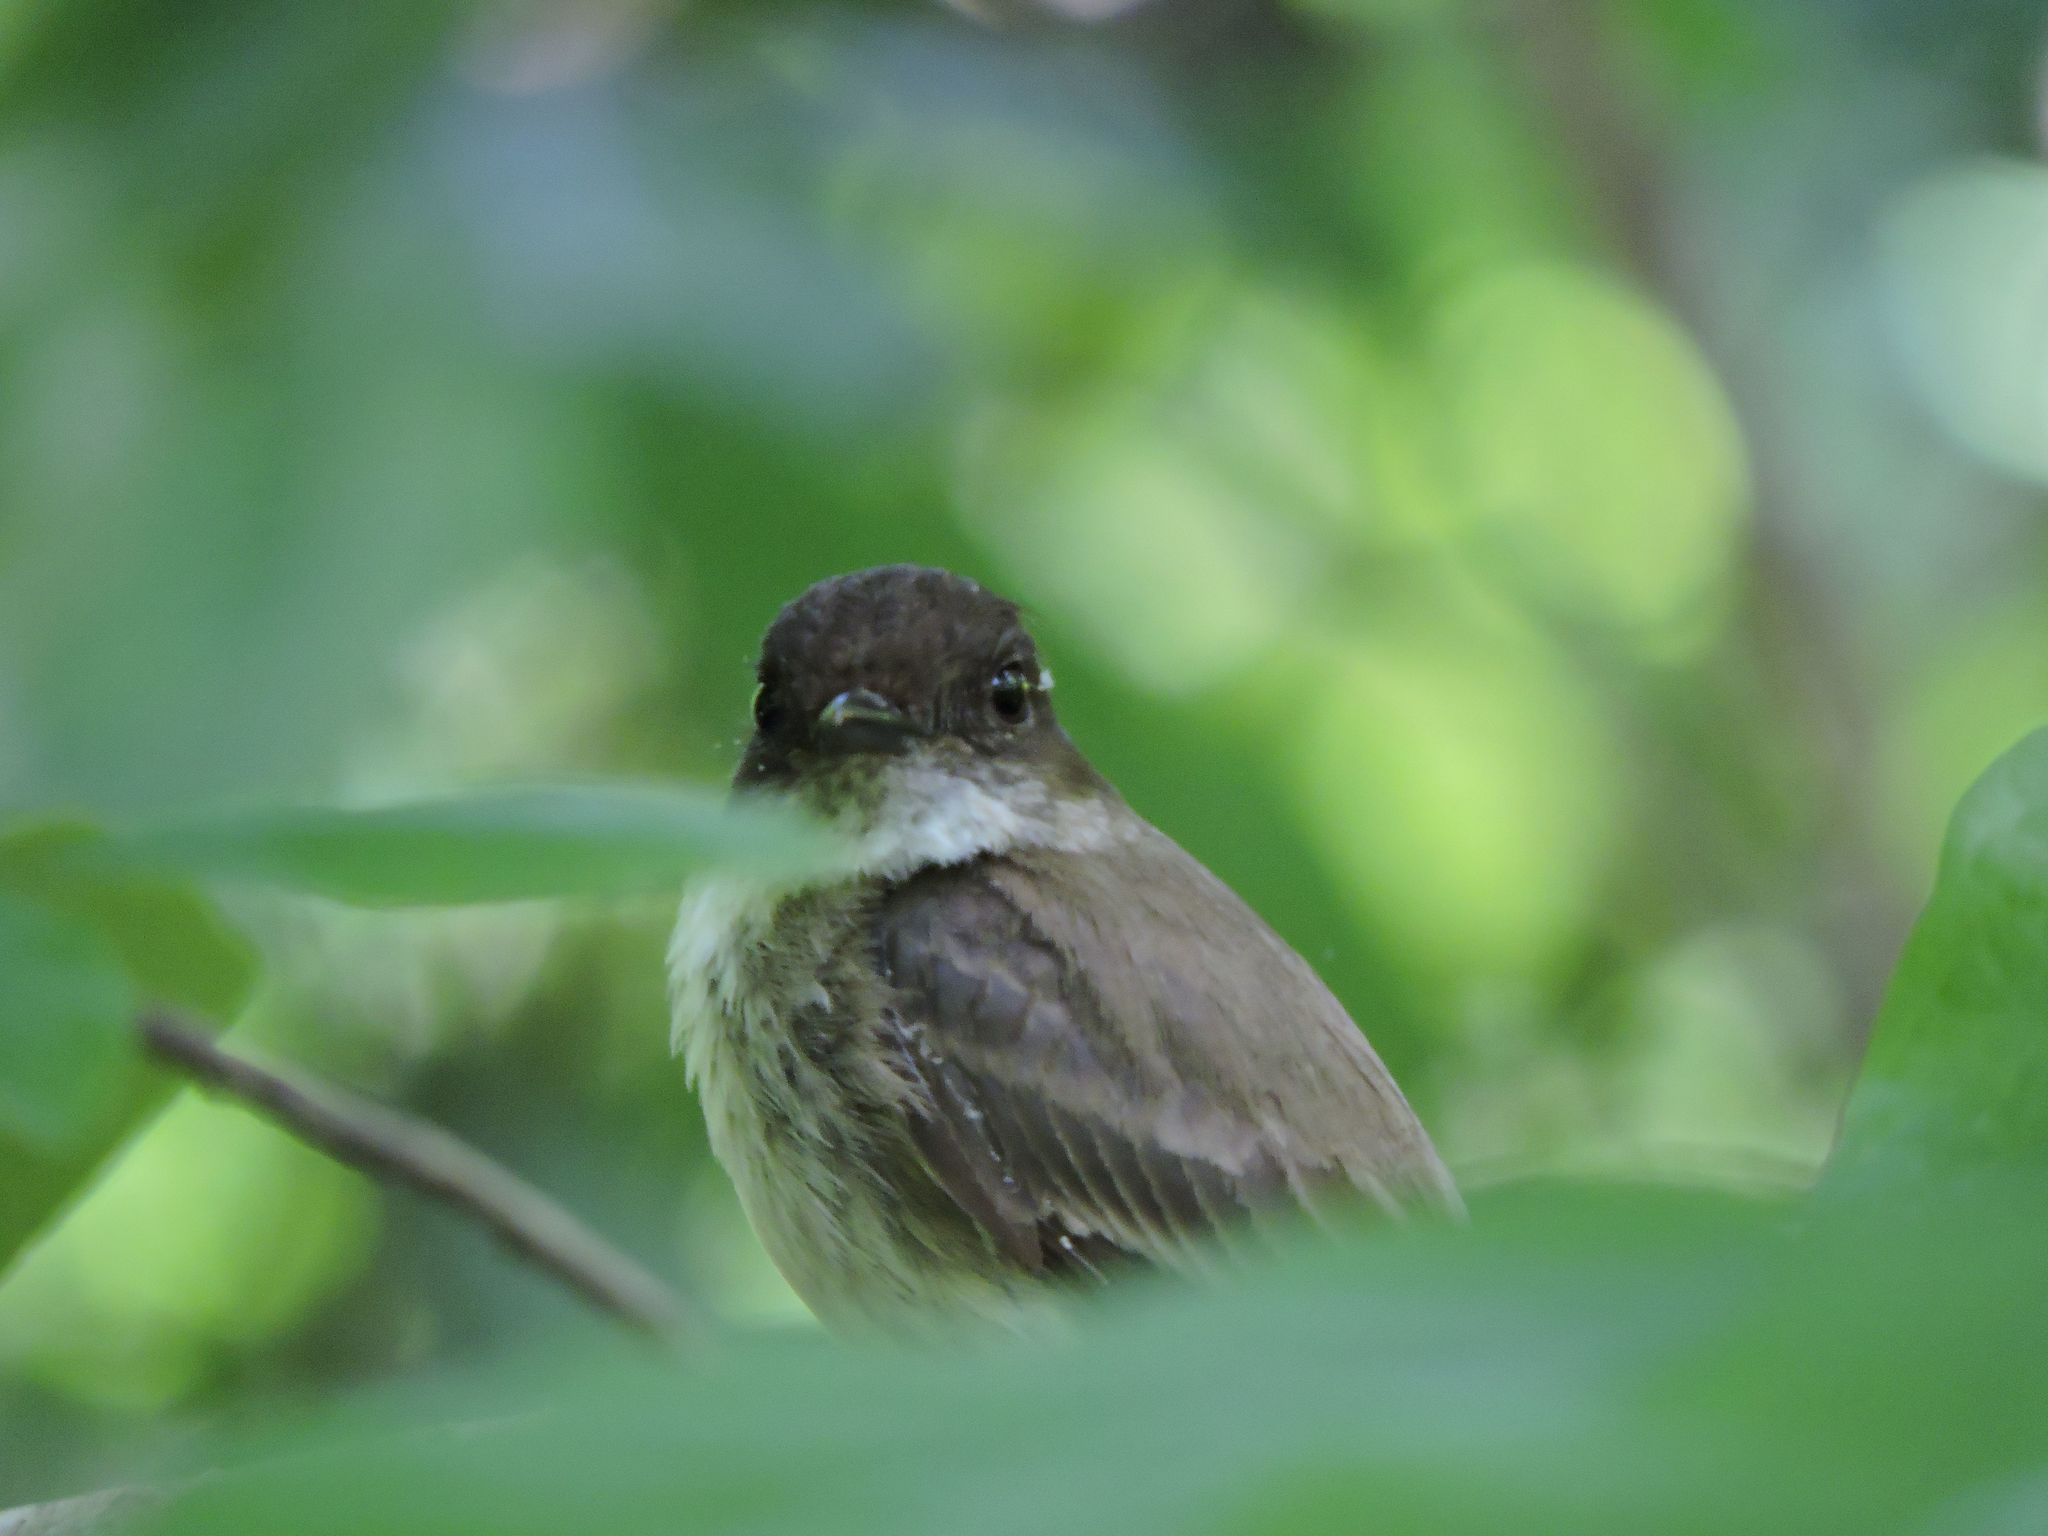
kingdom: Animalia
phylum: Chordata
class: Aves
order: Passeriformes
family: Tyrannidae
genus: Sayornis
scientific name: Sayornis phoebe
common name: Eastern phoebe
